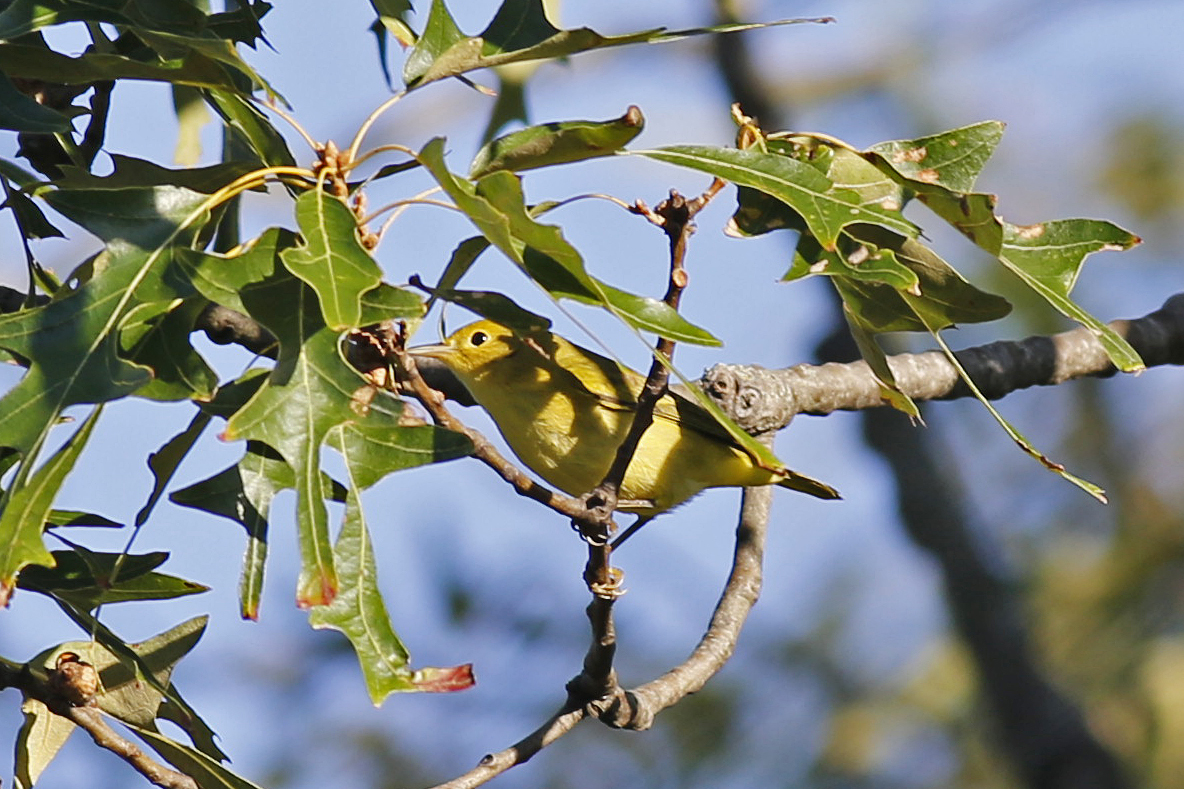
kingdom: Animalia
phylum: Chordata
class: Aves
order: Passeriformes
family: Parulidae
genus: Setophaga
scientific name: Setophaga petechia
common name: Yellow warbler
